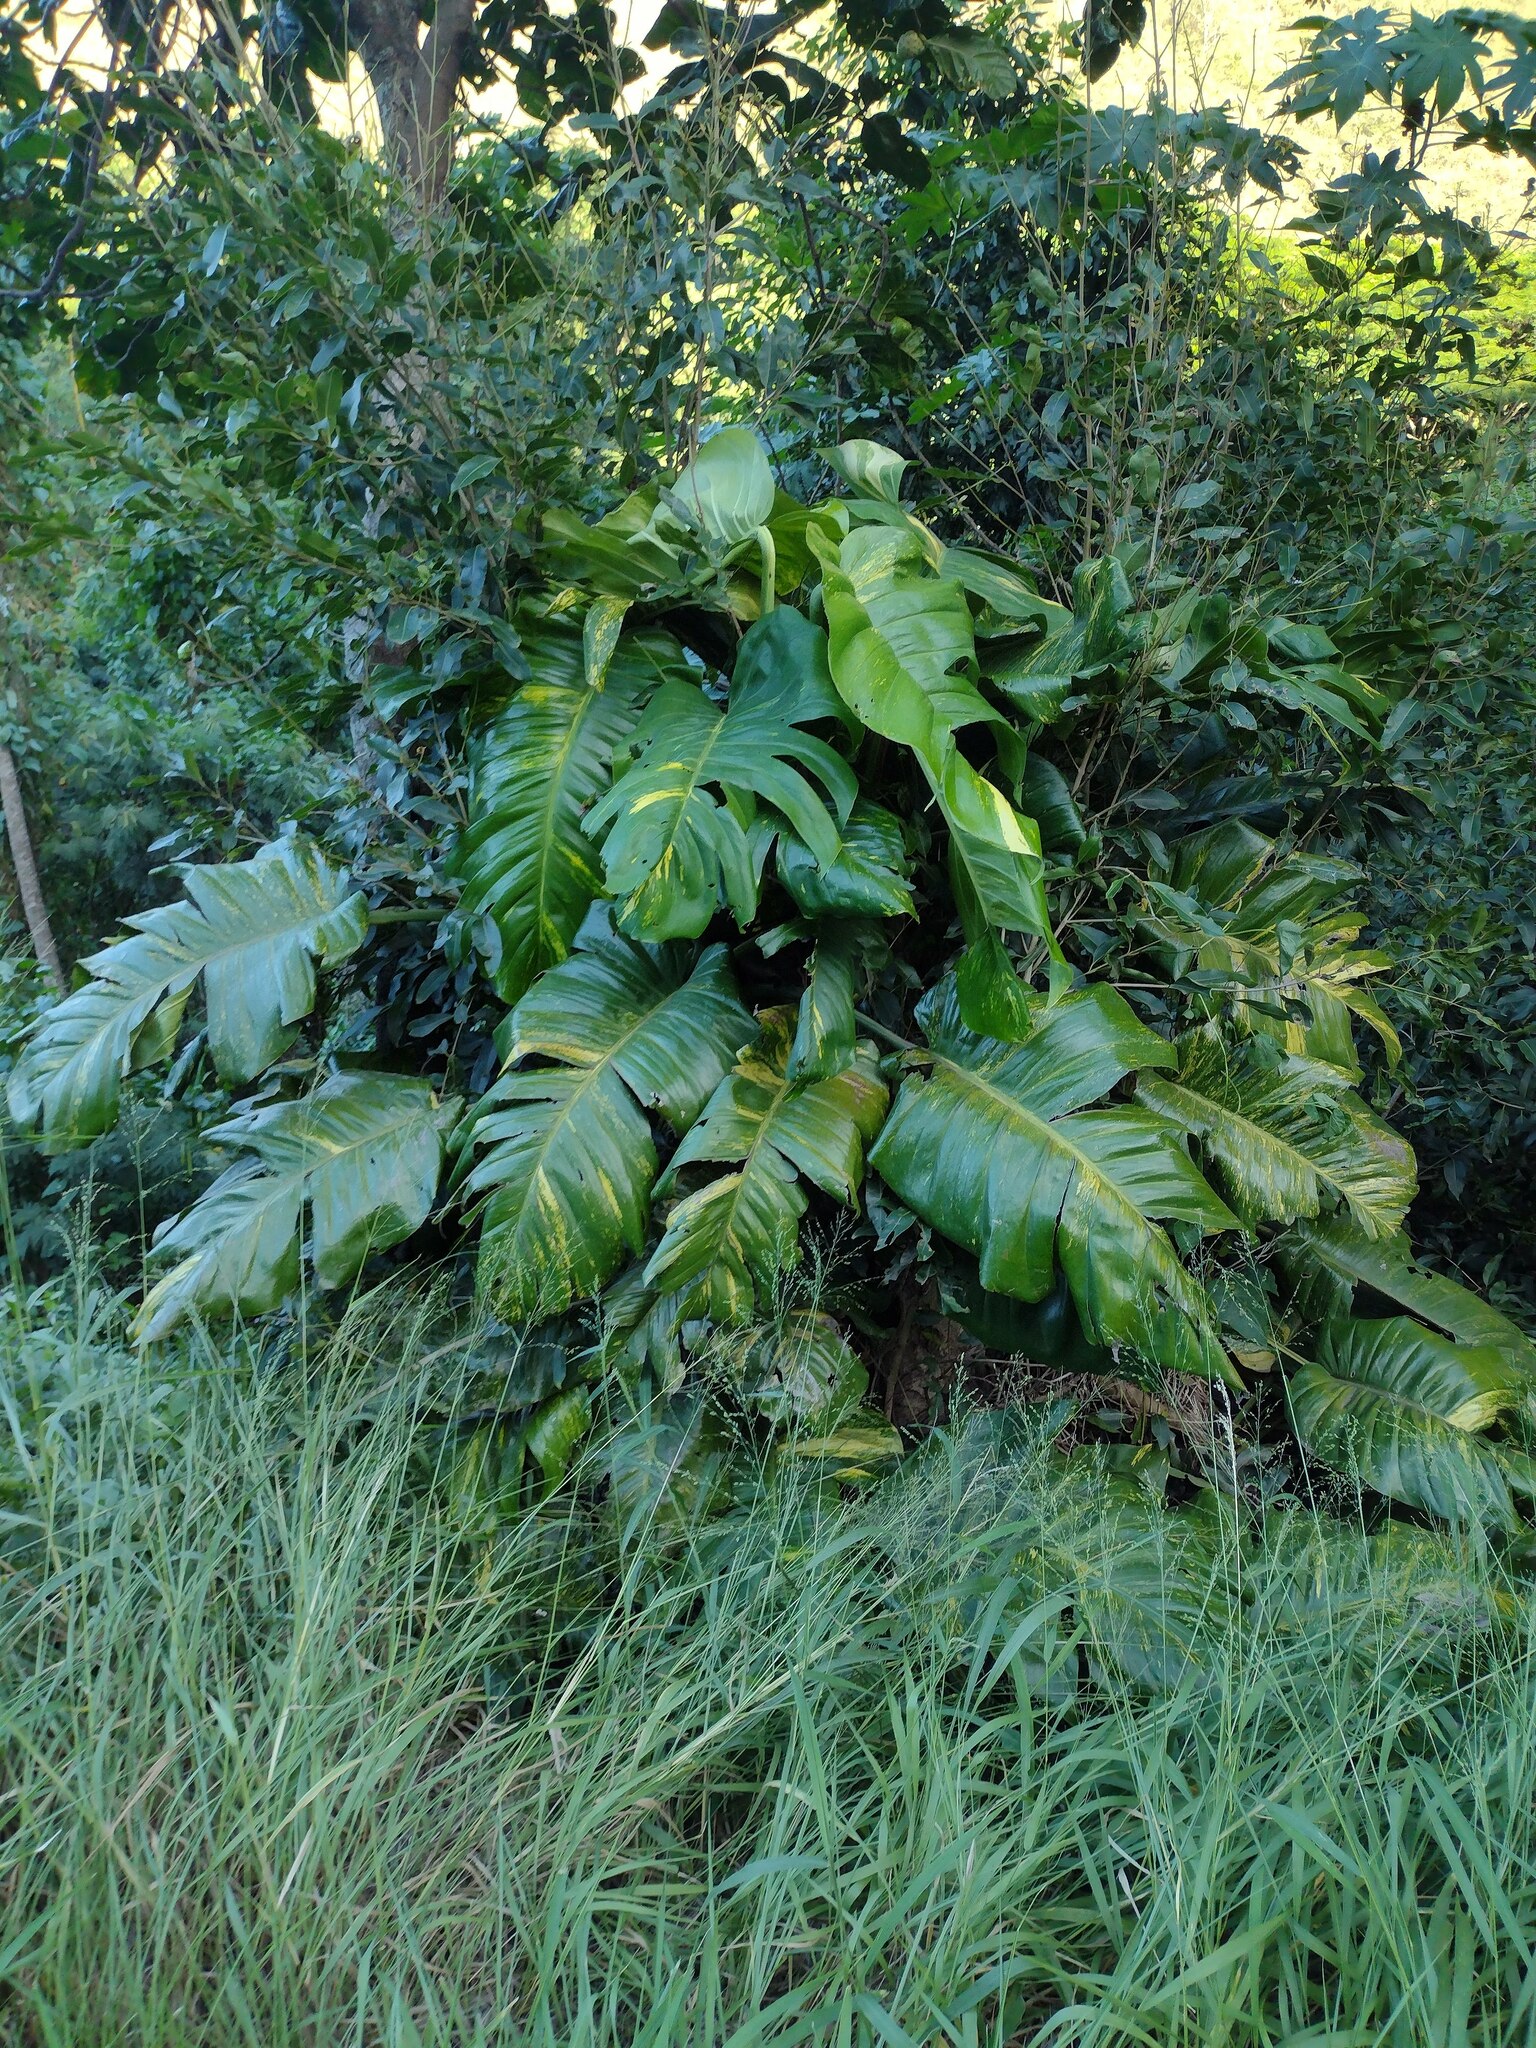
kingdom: Plantae
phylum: Tracheophyta
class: Liliopsida
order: Alismatales
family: Araceae
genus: Epipremnum
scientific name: Epipremnum aureum
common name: Golden hunter's-robe
